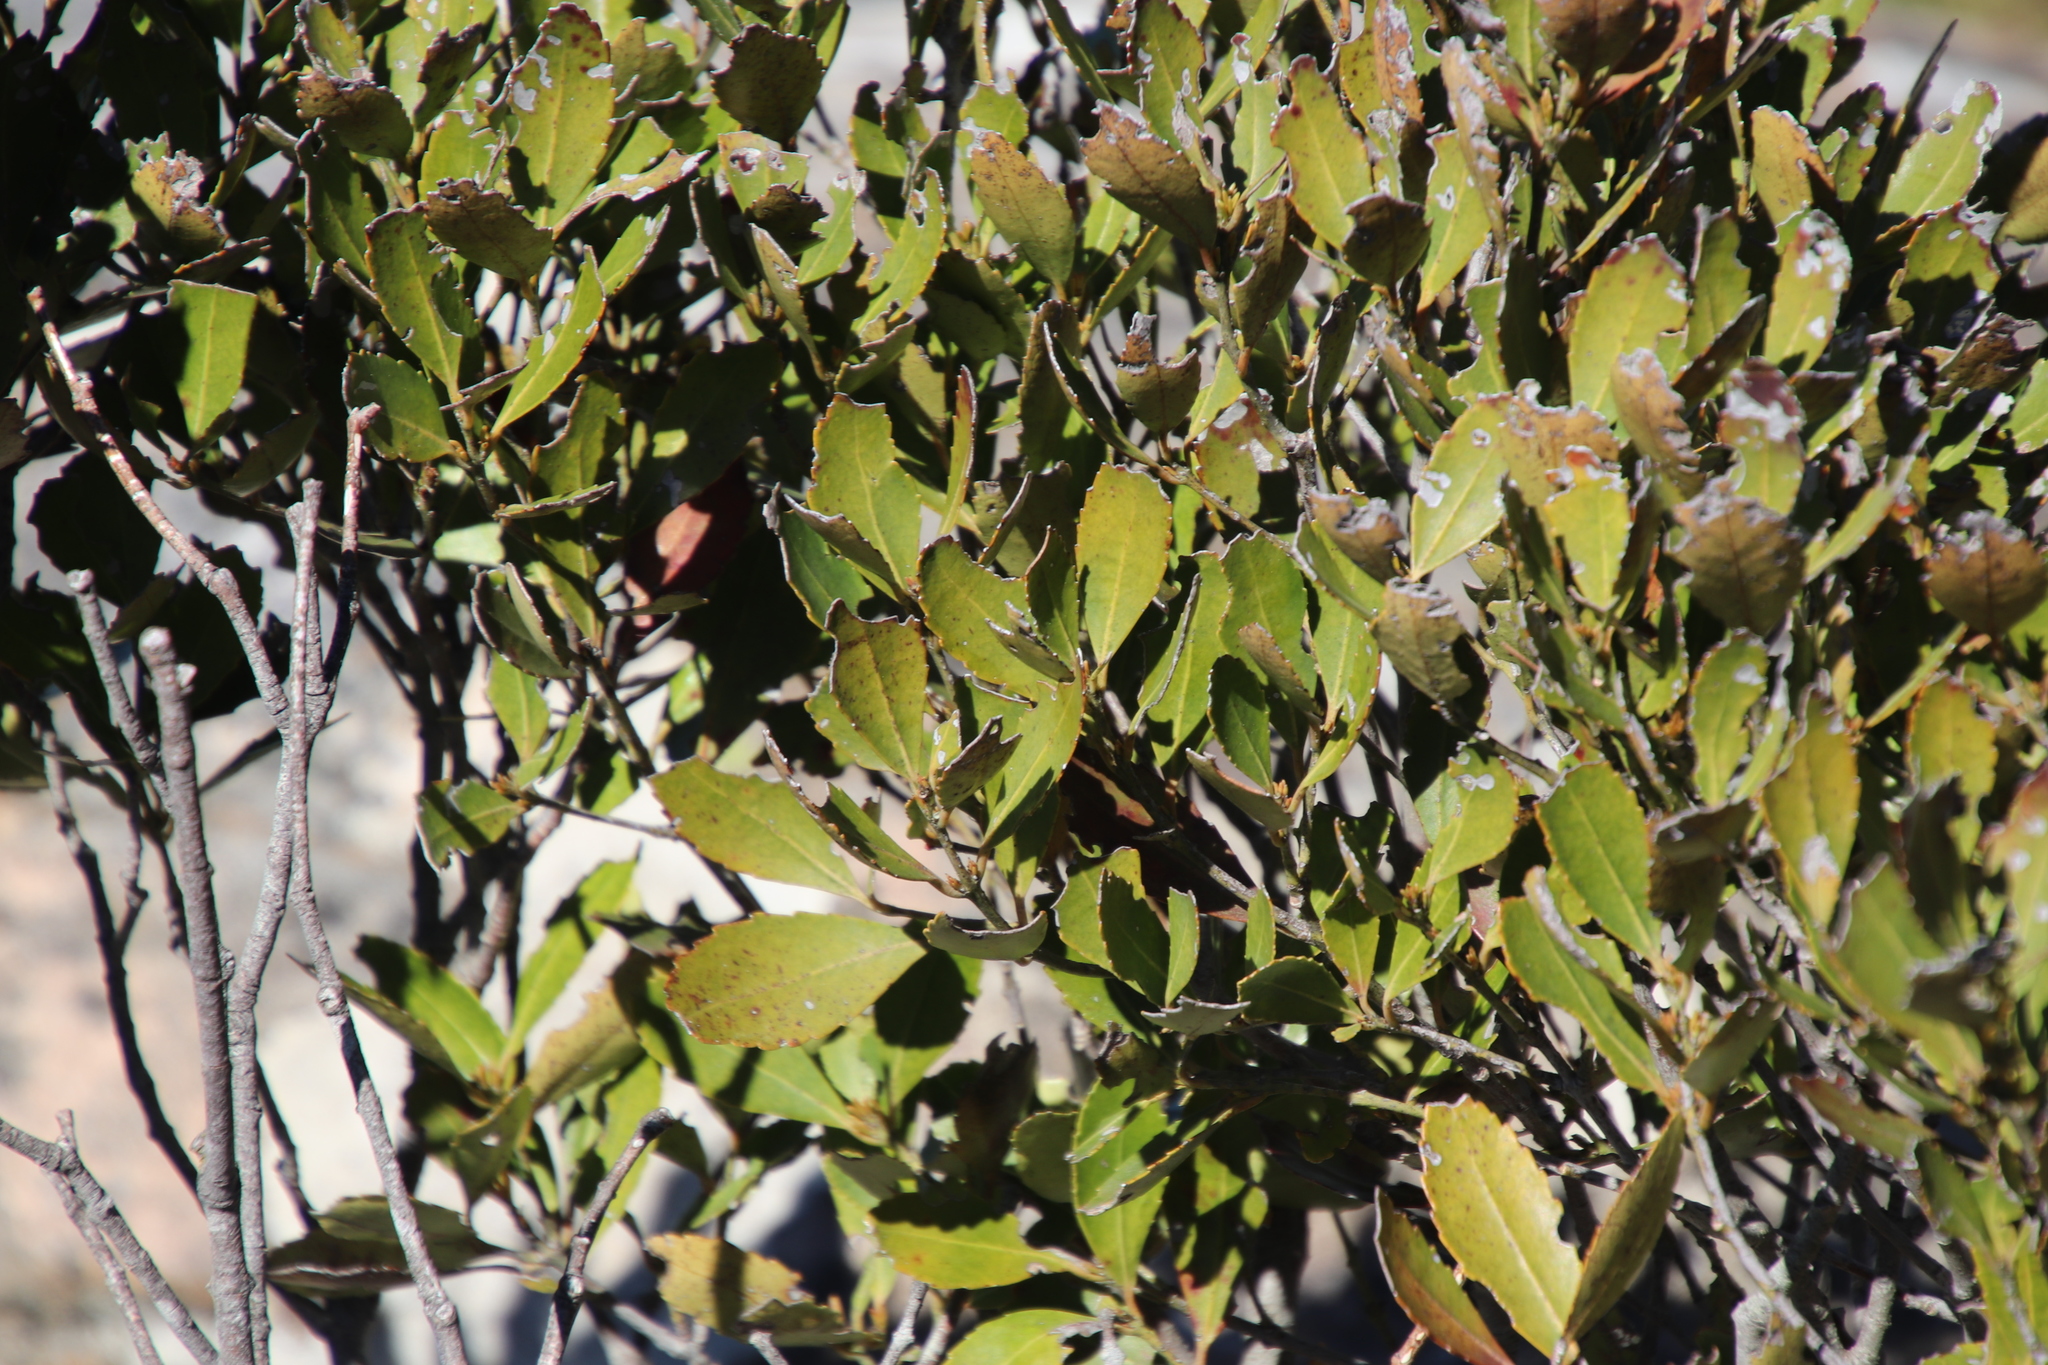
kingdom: Plantae
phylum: Tracheophyta
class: Magnoliopsida
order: Celastrales
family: Celastraceae
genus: Elaeodendron
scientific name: Elaeodendron schinoides
